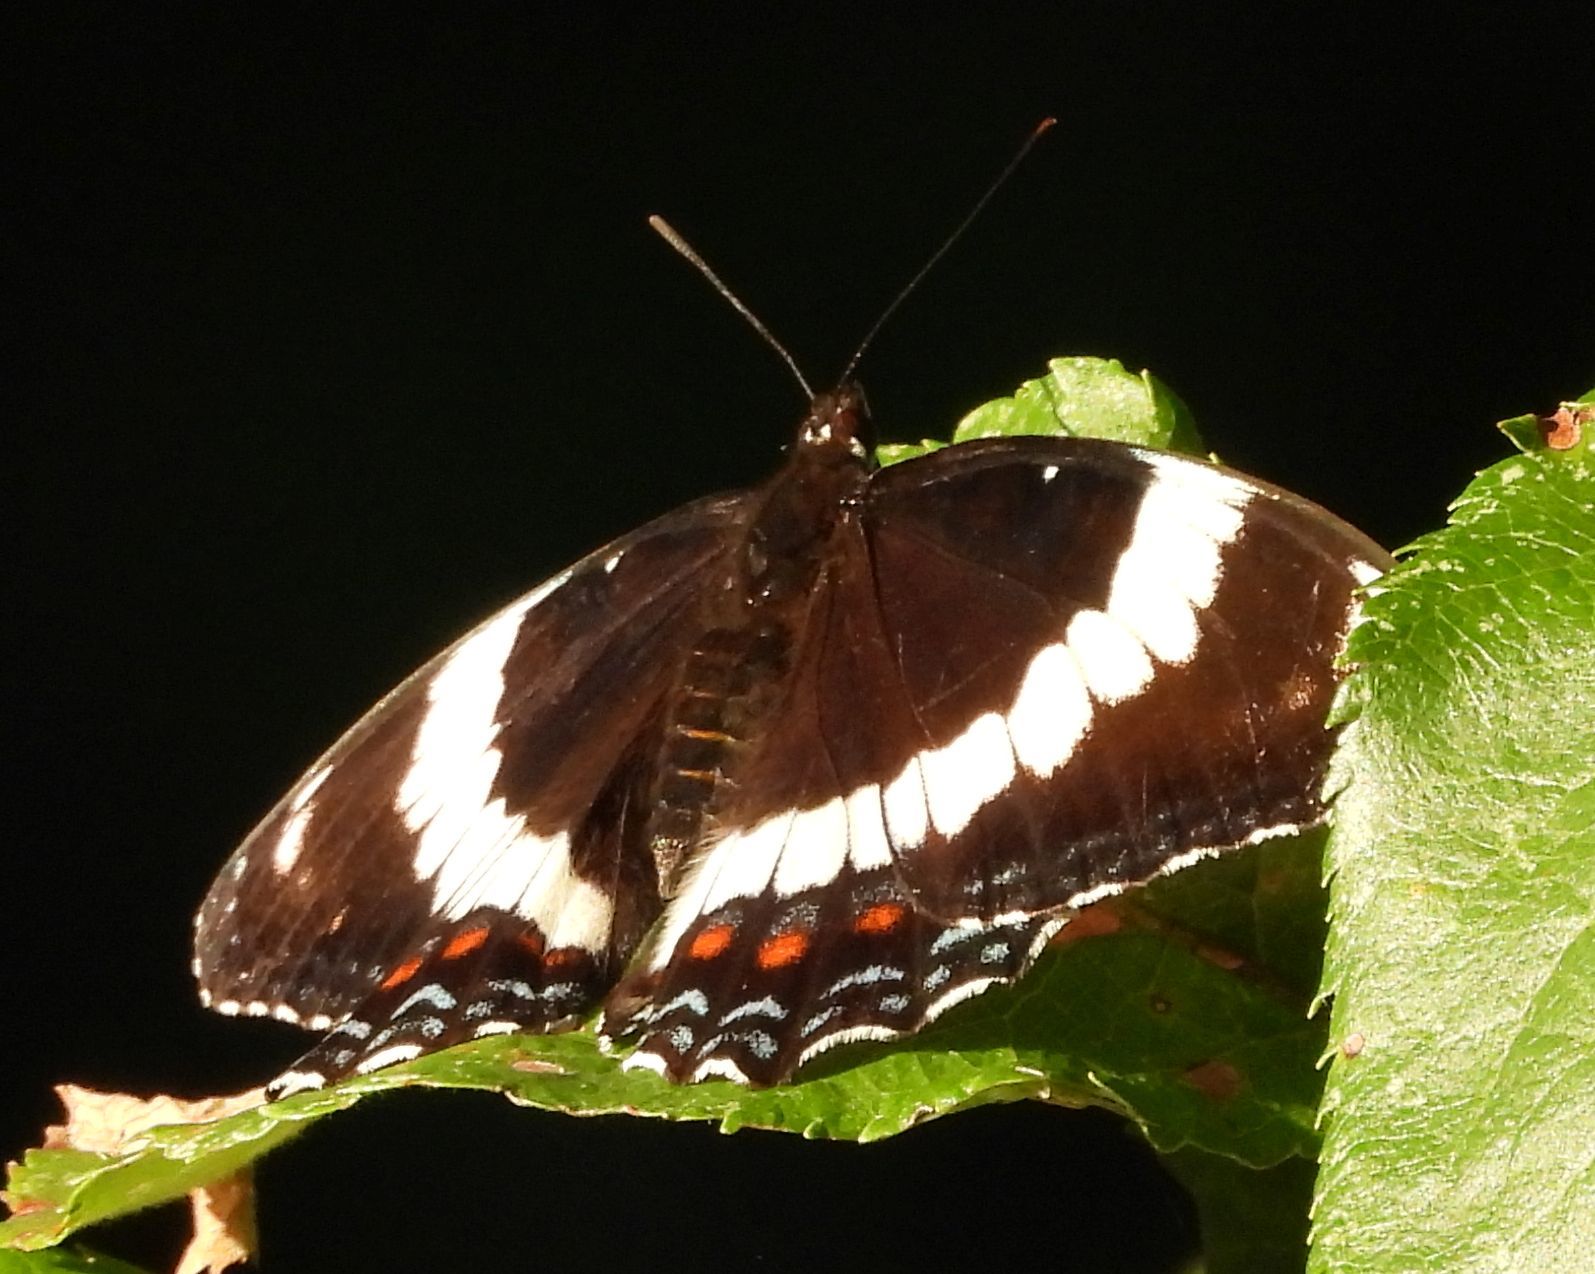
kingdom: Animalia
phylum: Arthropoda
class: Insecta
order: Lepidoptera
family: Nymphalidae
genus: Limenitis
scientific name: Limenitis arthemis
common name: Red-spotted admiral
